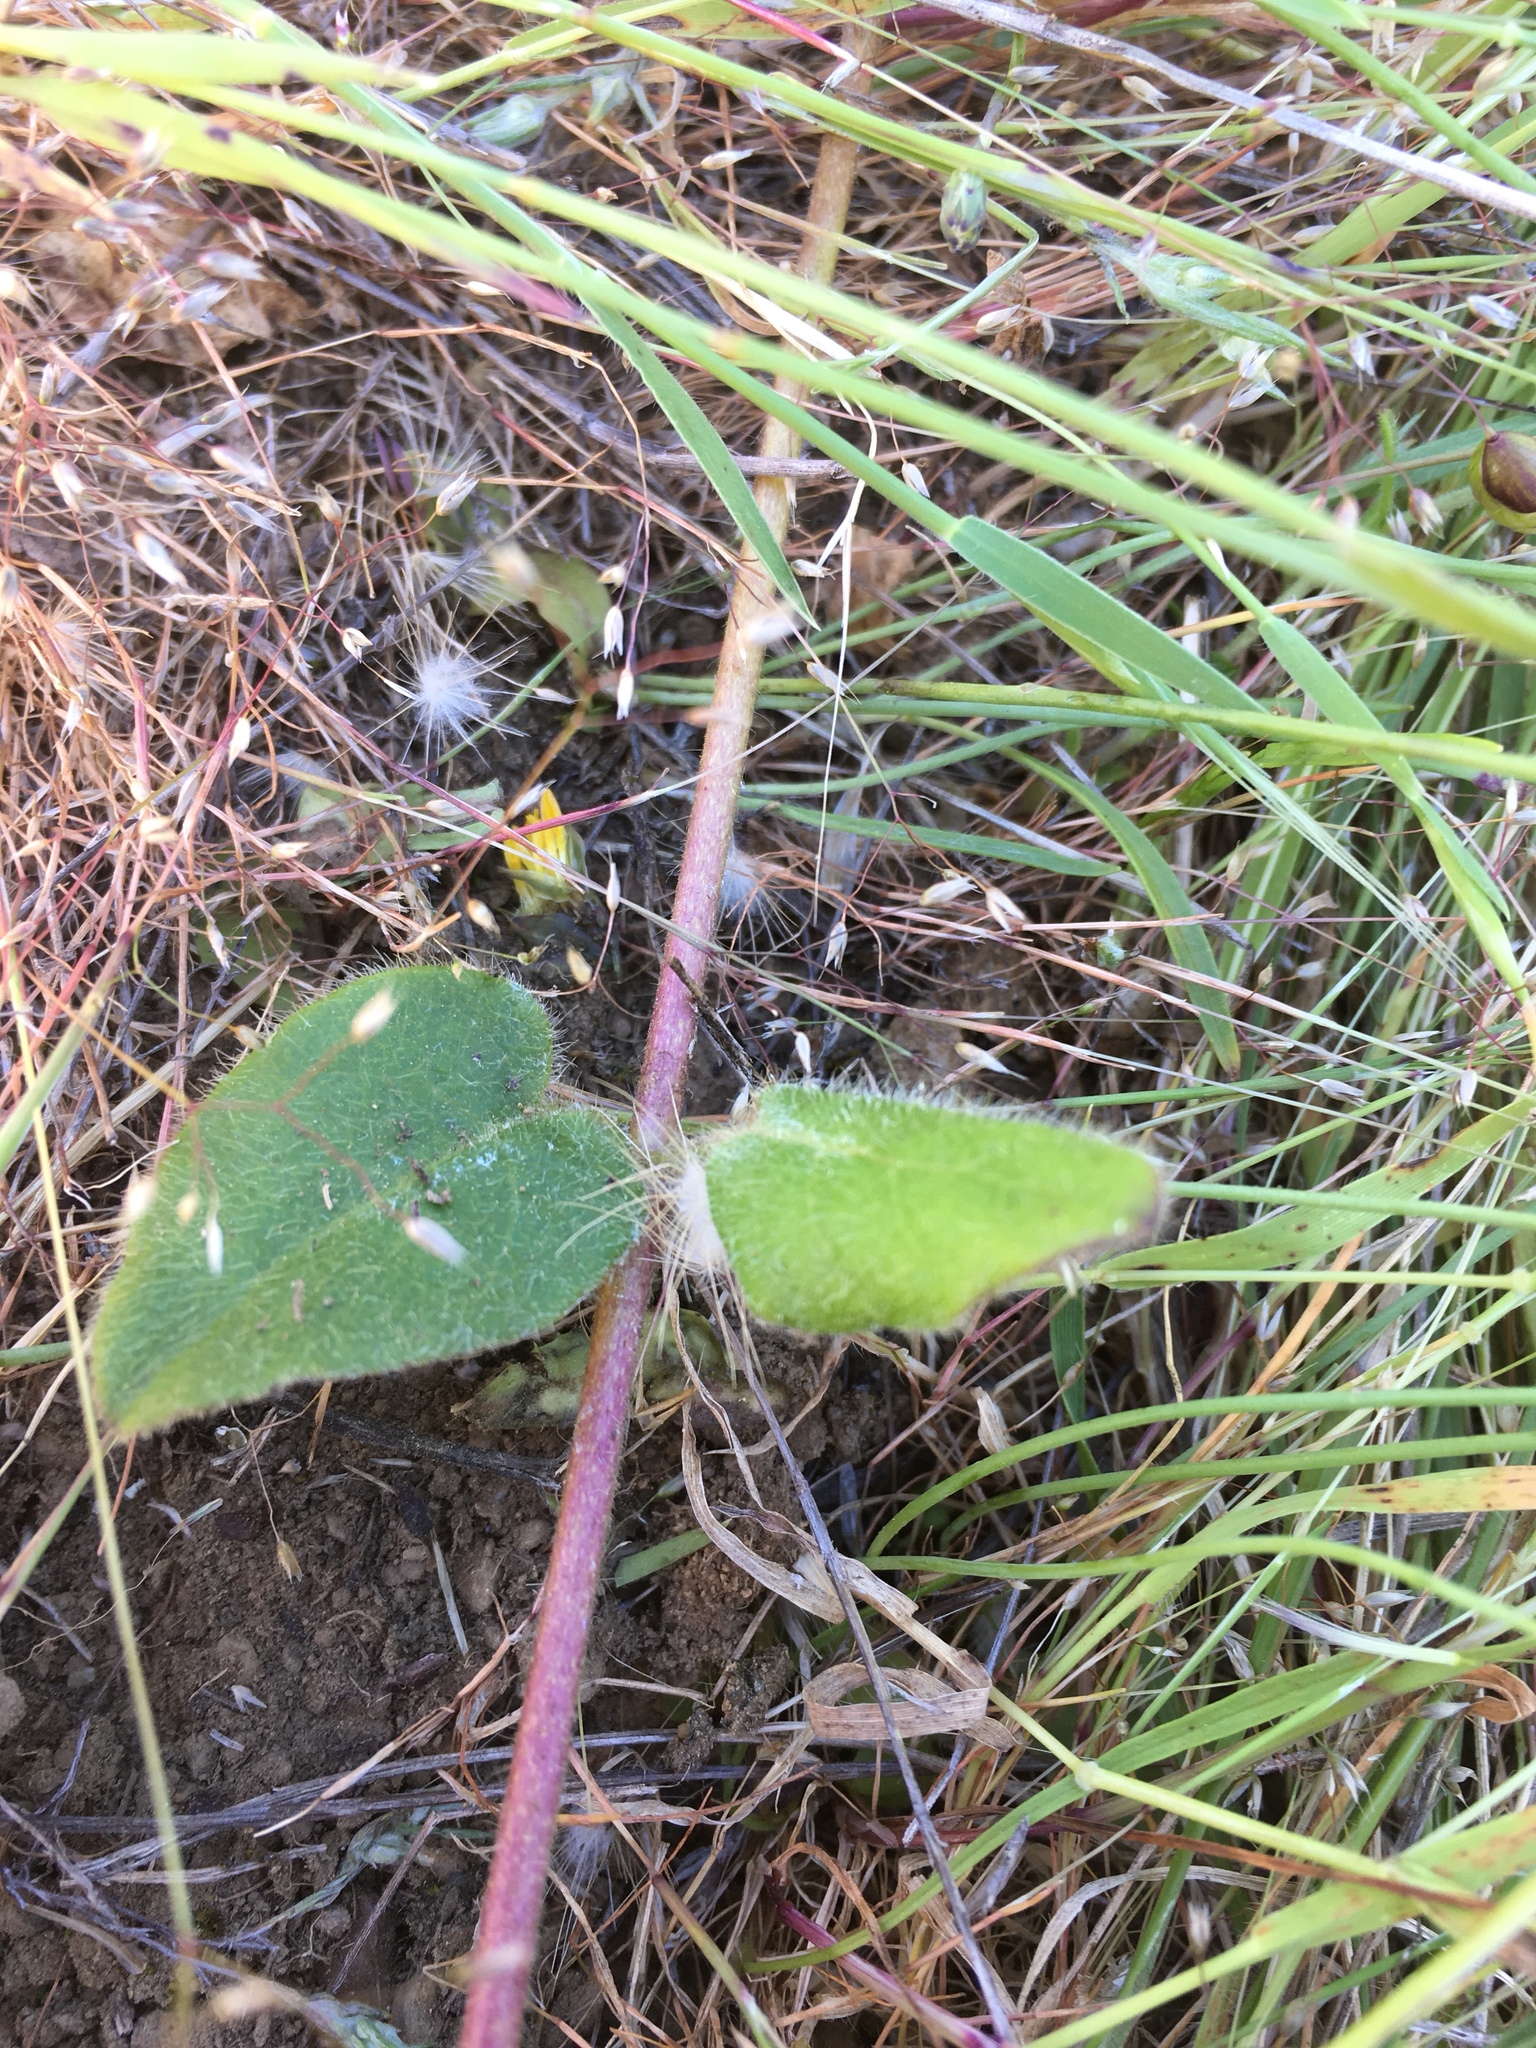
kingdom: Plantae
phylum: Tracheophyta
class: Magnoliopsida
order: Dipsacales
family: Caprifoliaceae
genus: Lonicera
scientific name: Lonicera hispidula
